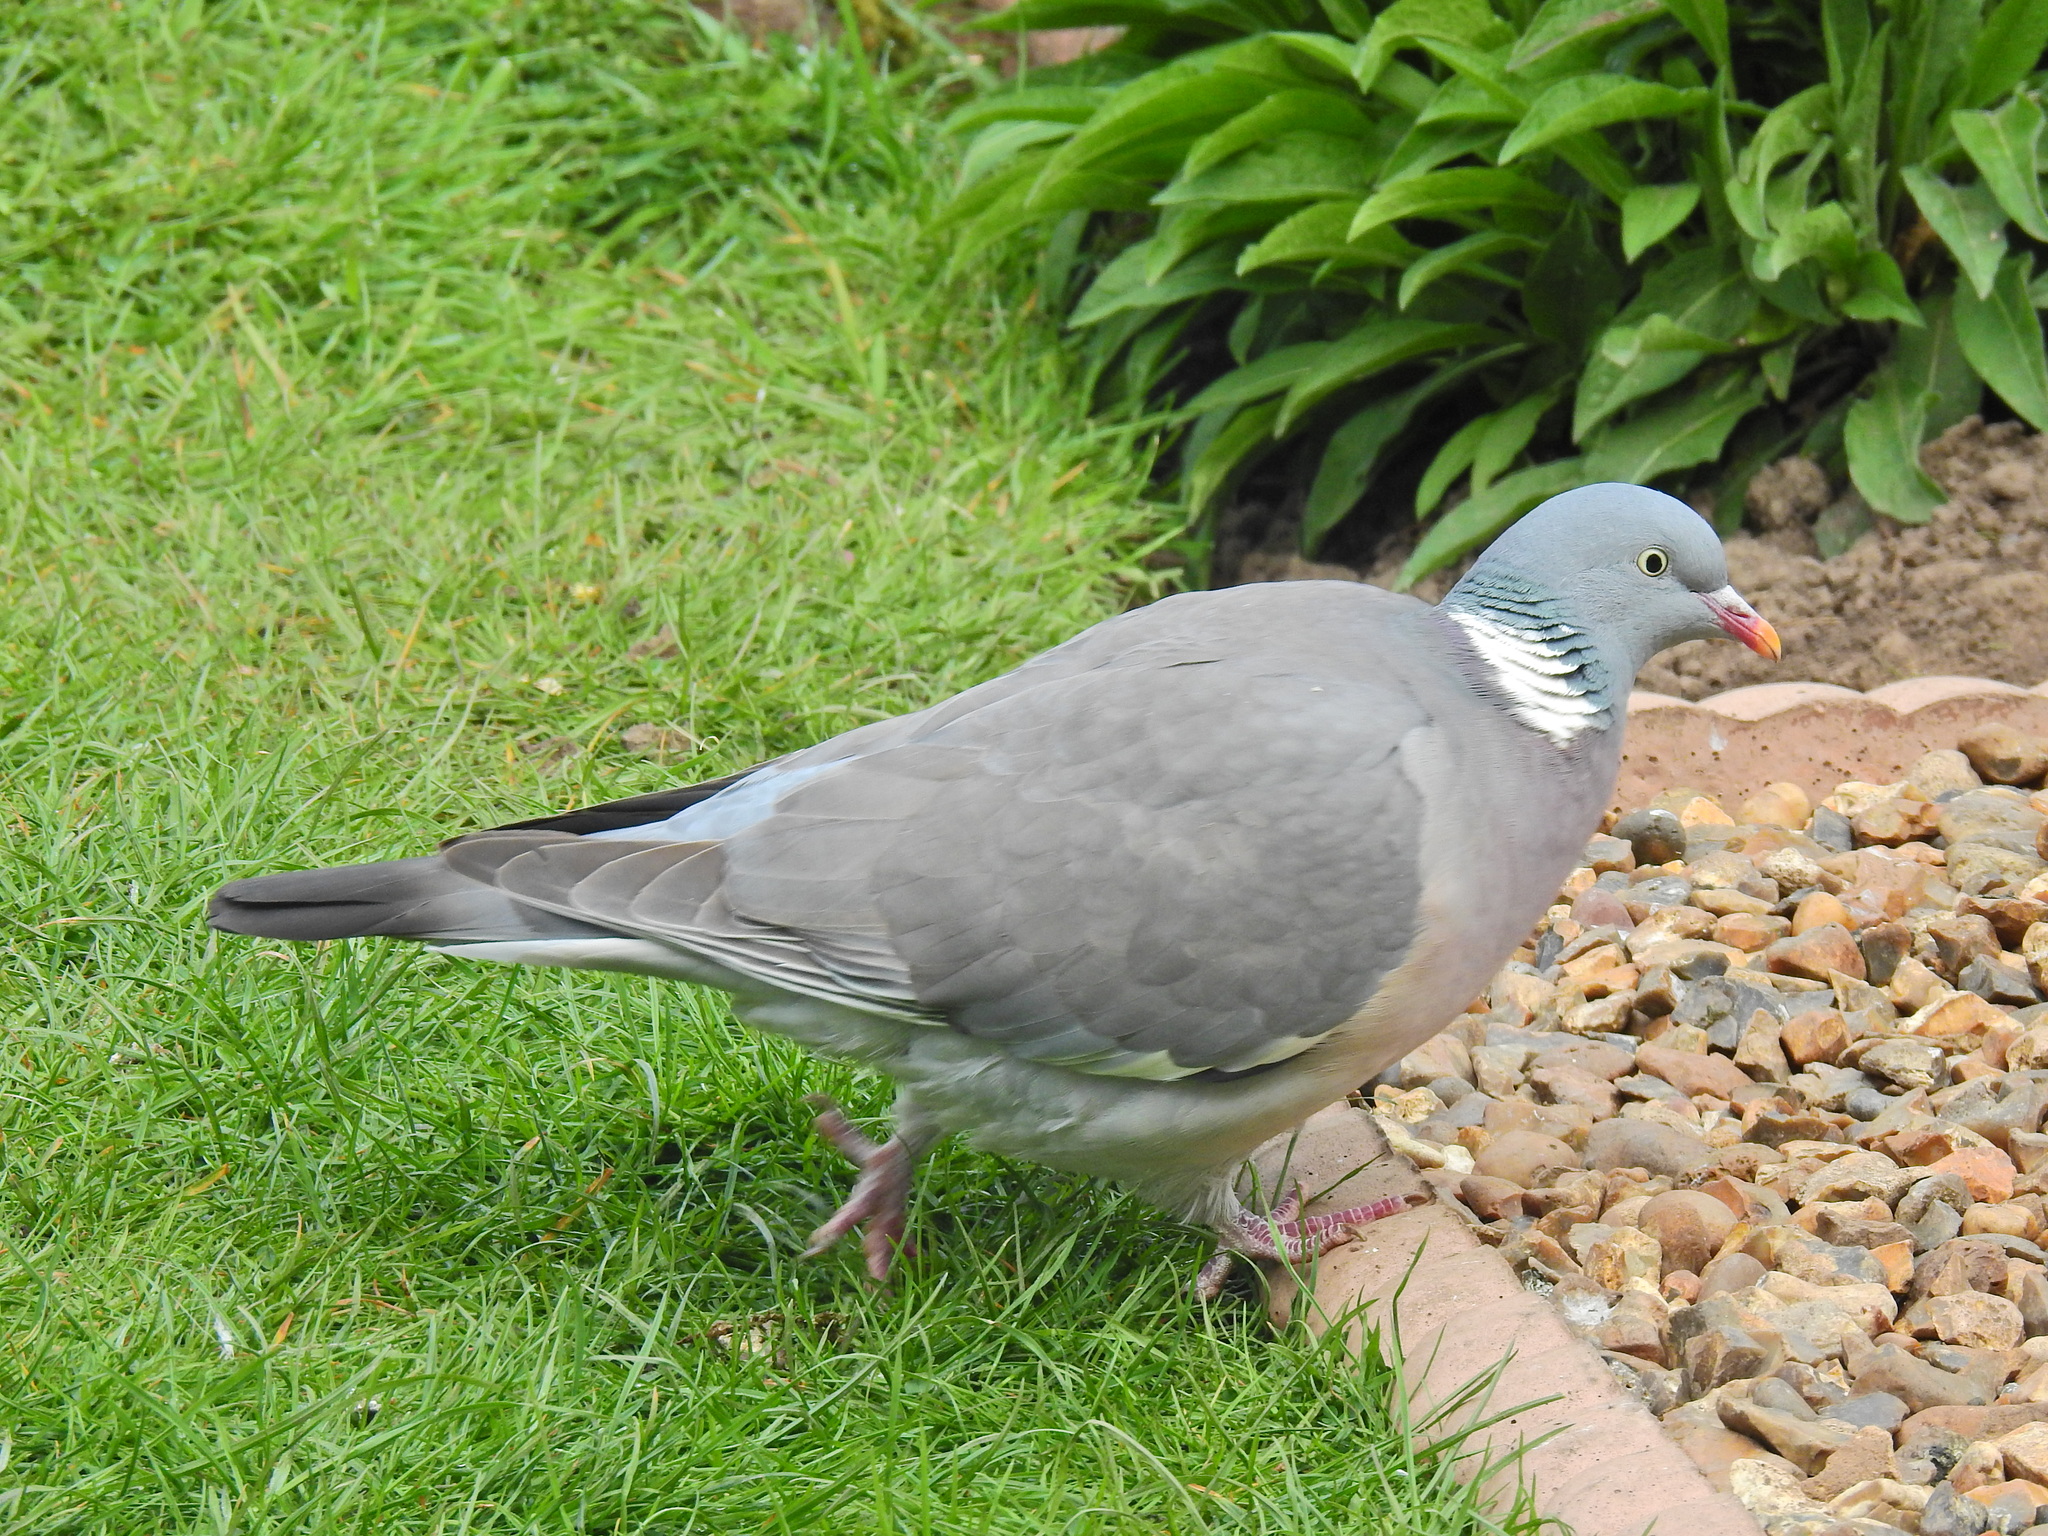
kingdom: Animalia
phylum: Chordata
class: Aves
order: Columbiformes
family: Columbidae
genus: Columba
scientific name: Columba palumbus
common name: Common wood pigeon
